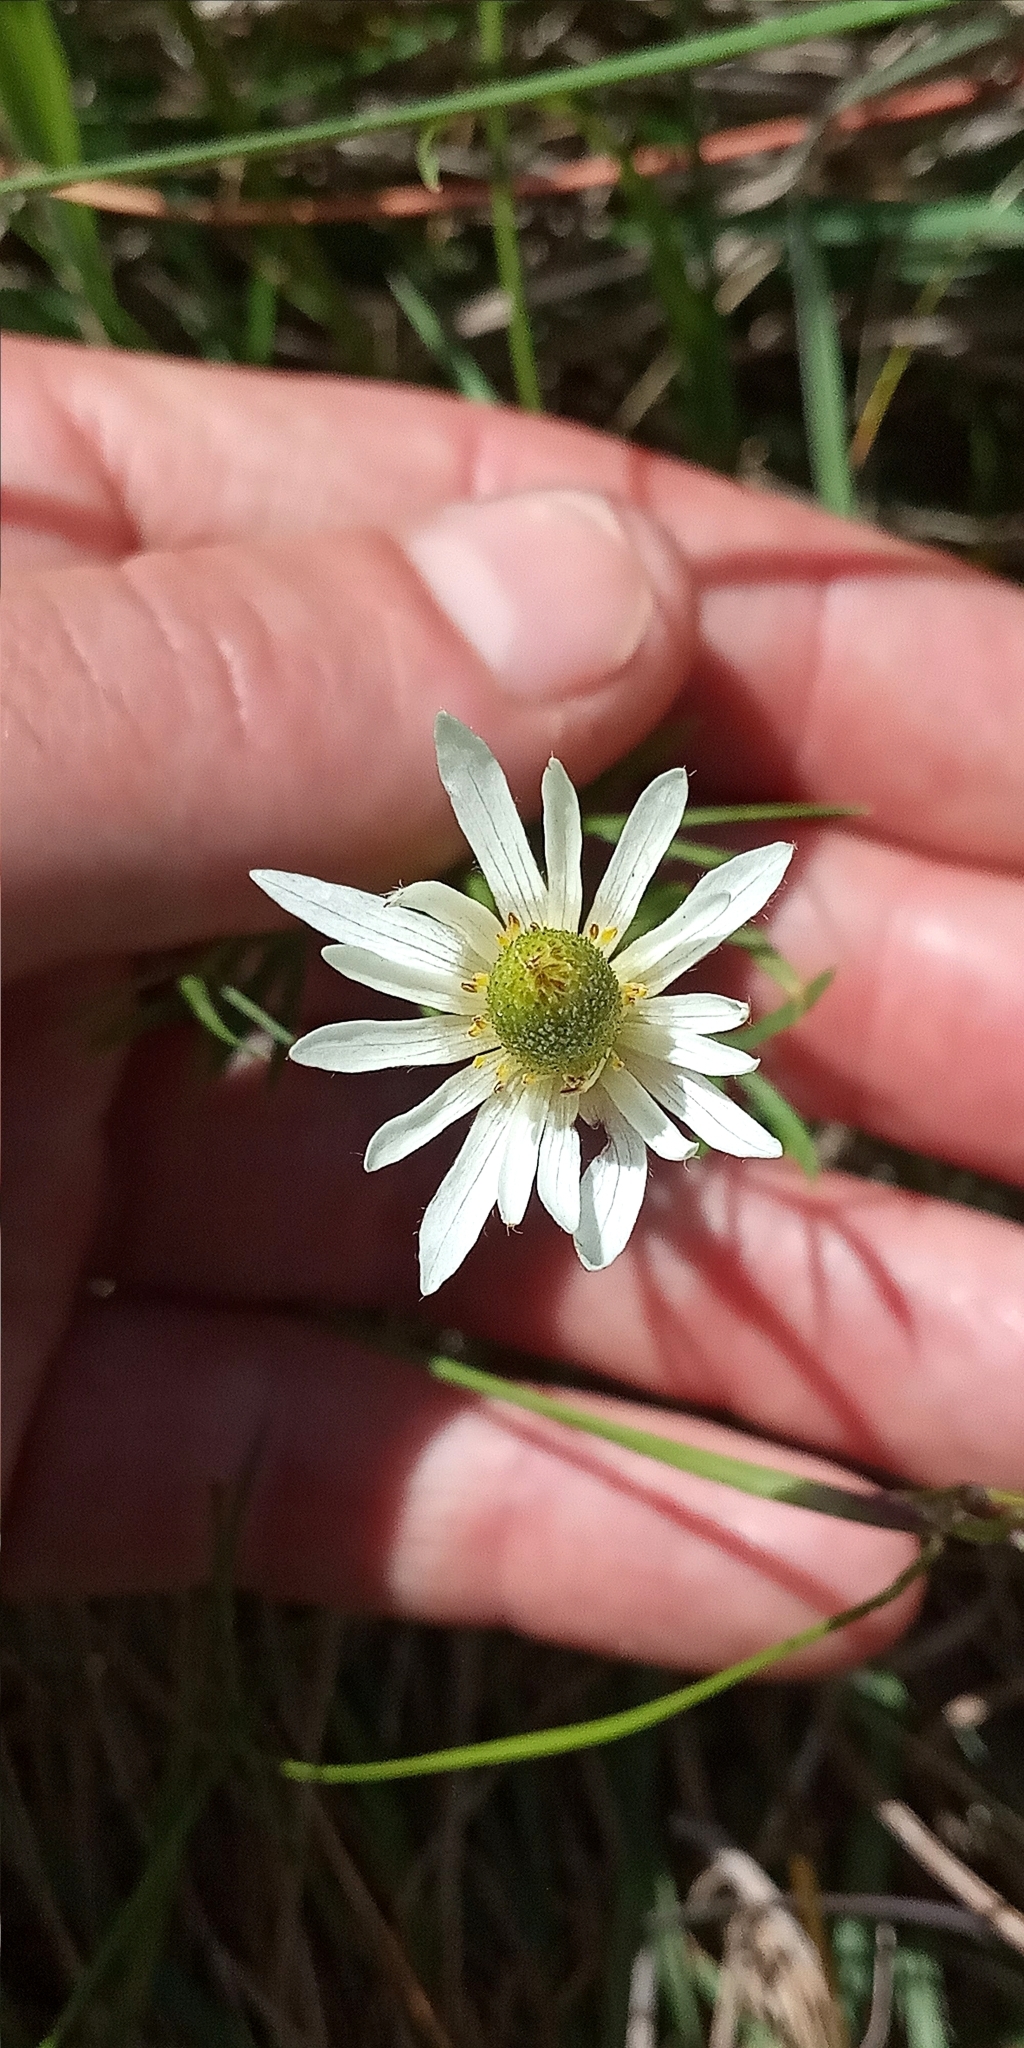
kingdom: Plantae
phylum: Tracheophyta
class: Magnoliopsida
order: Ranunculales
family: Ranunculaceae
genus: Anemone
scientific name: Anemone decapetala
